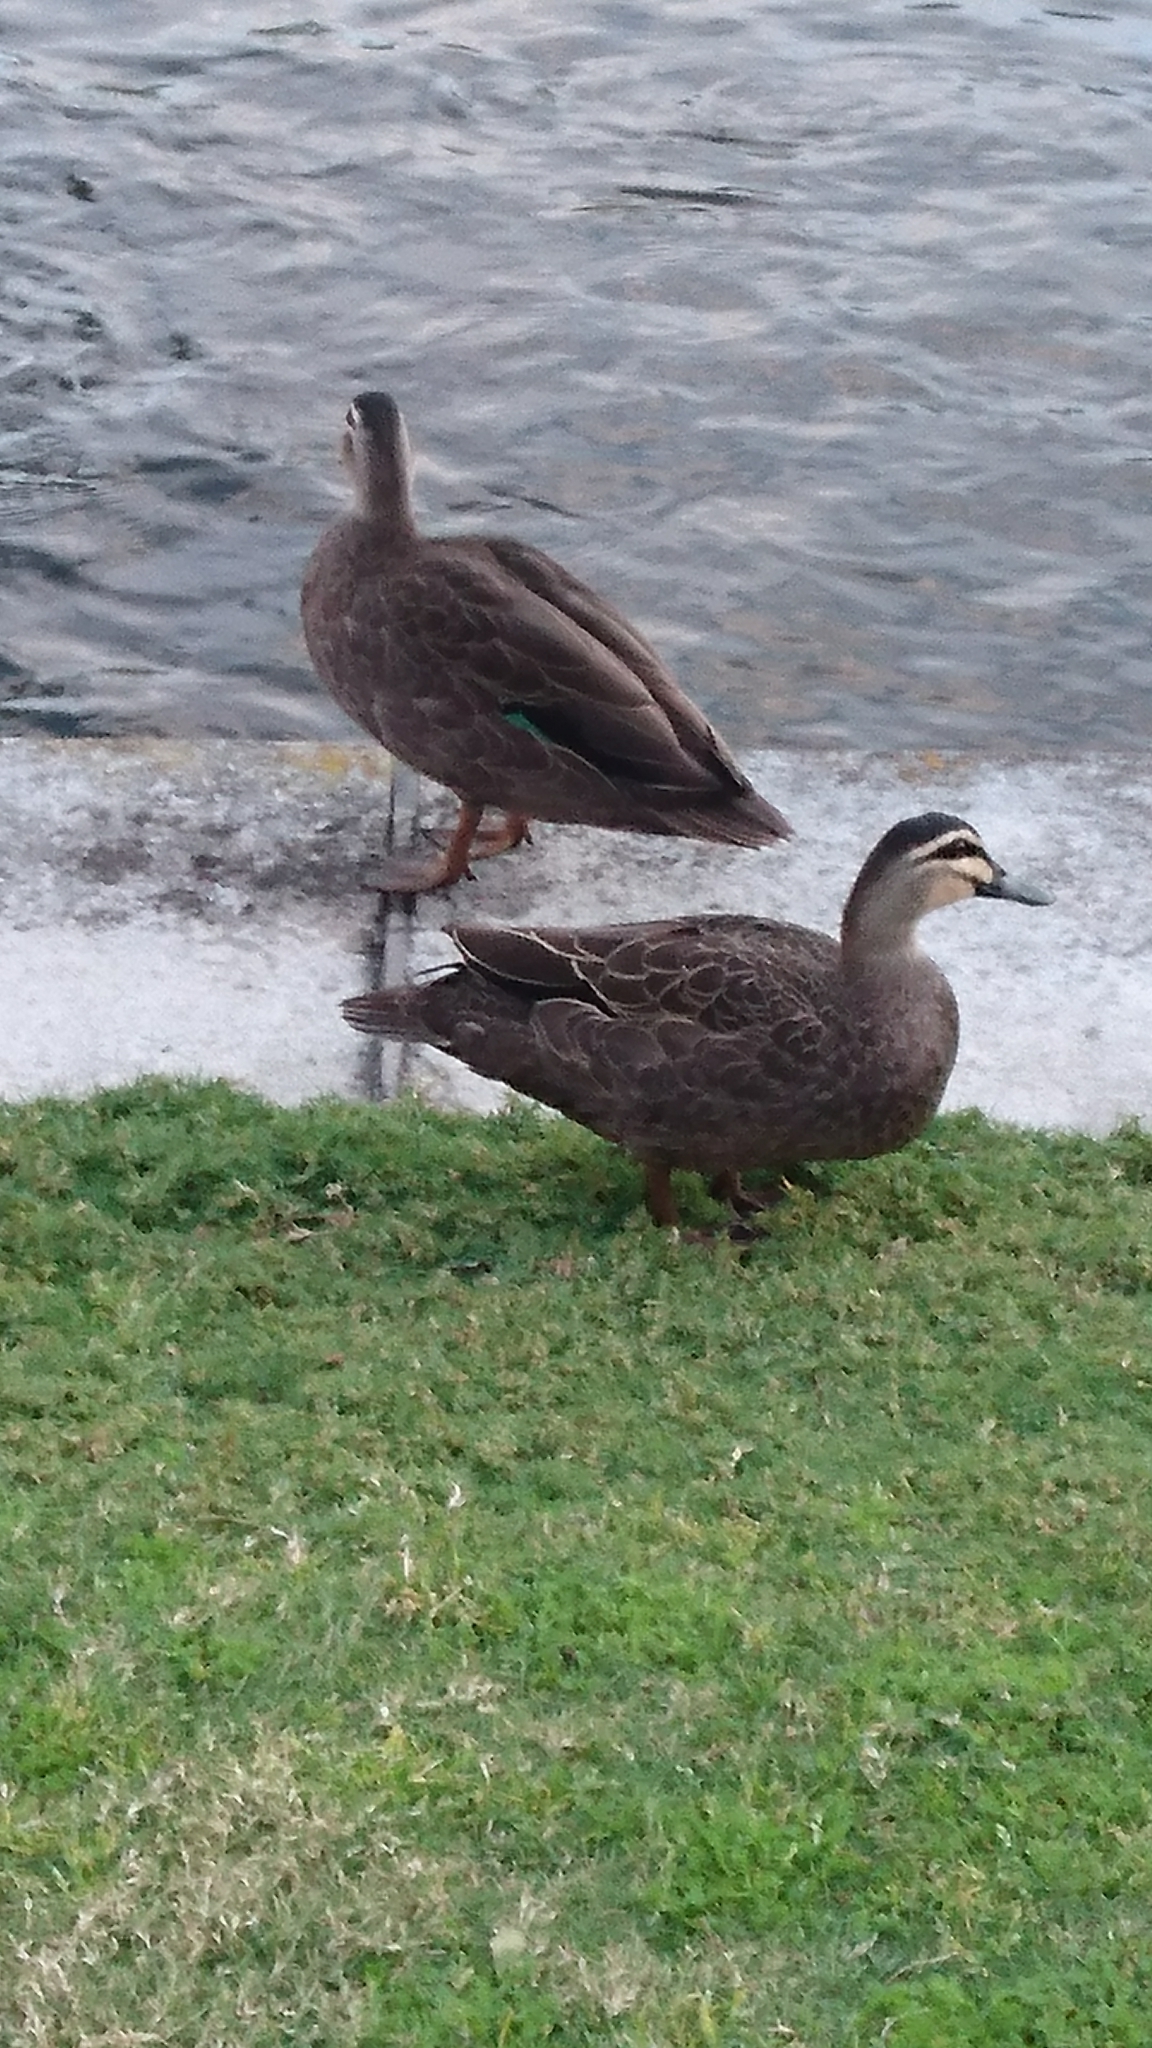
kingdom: Animalia
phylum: Chordata
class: Aves
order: Anseriformes
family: Anatidae
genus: Anas
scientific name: Anas superciliosa
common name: Pacific black duck
